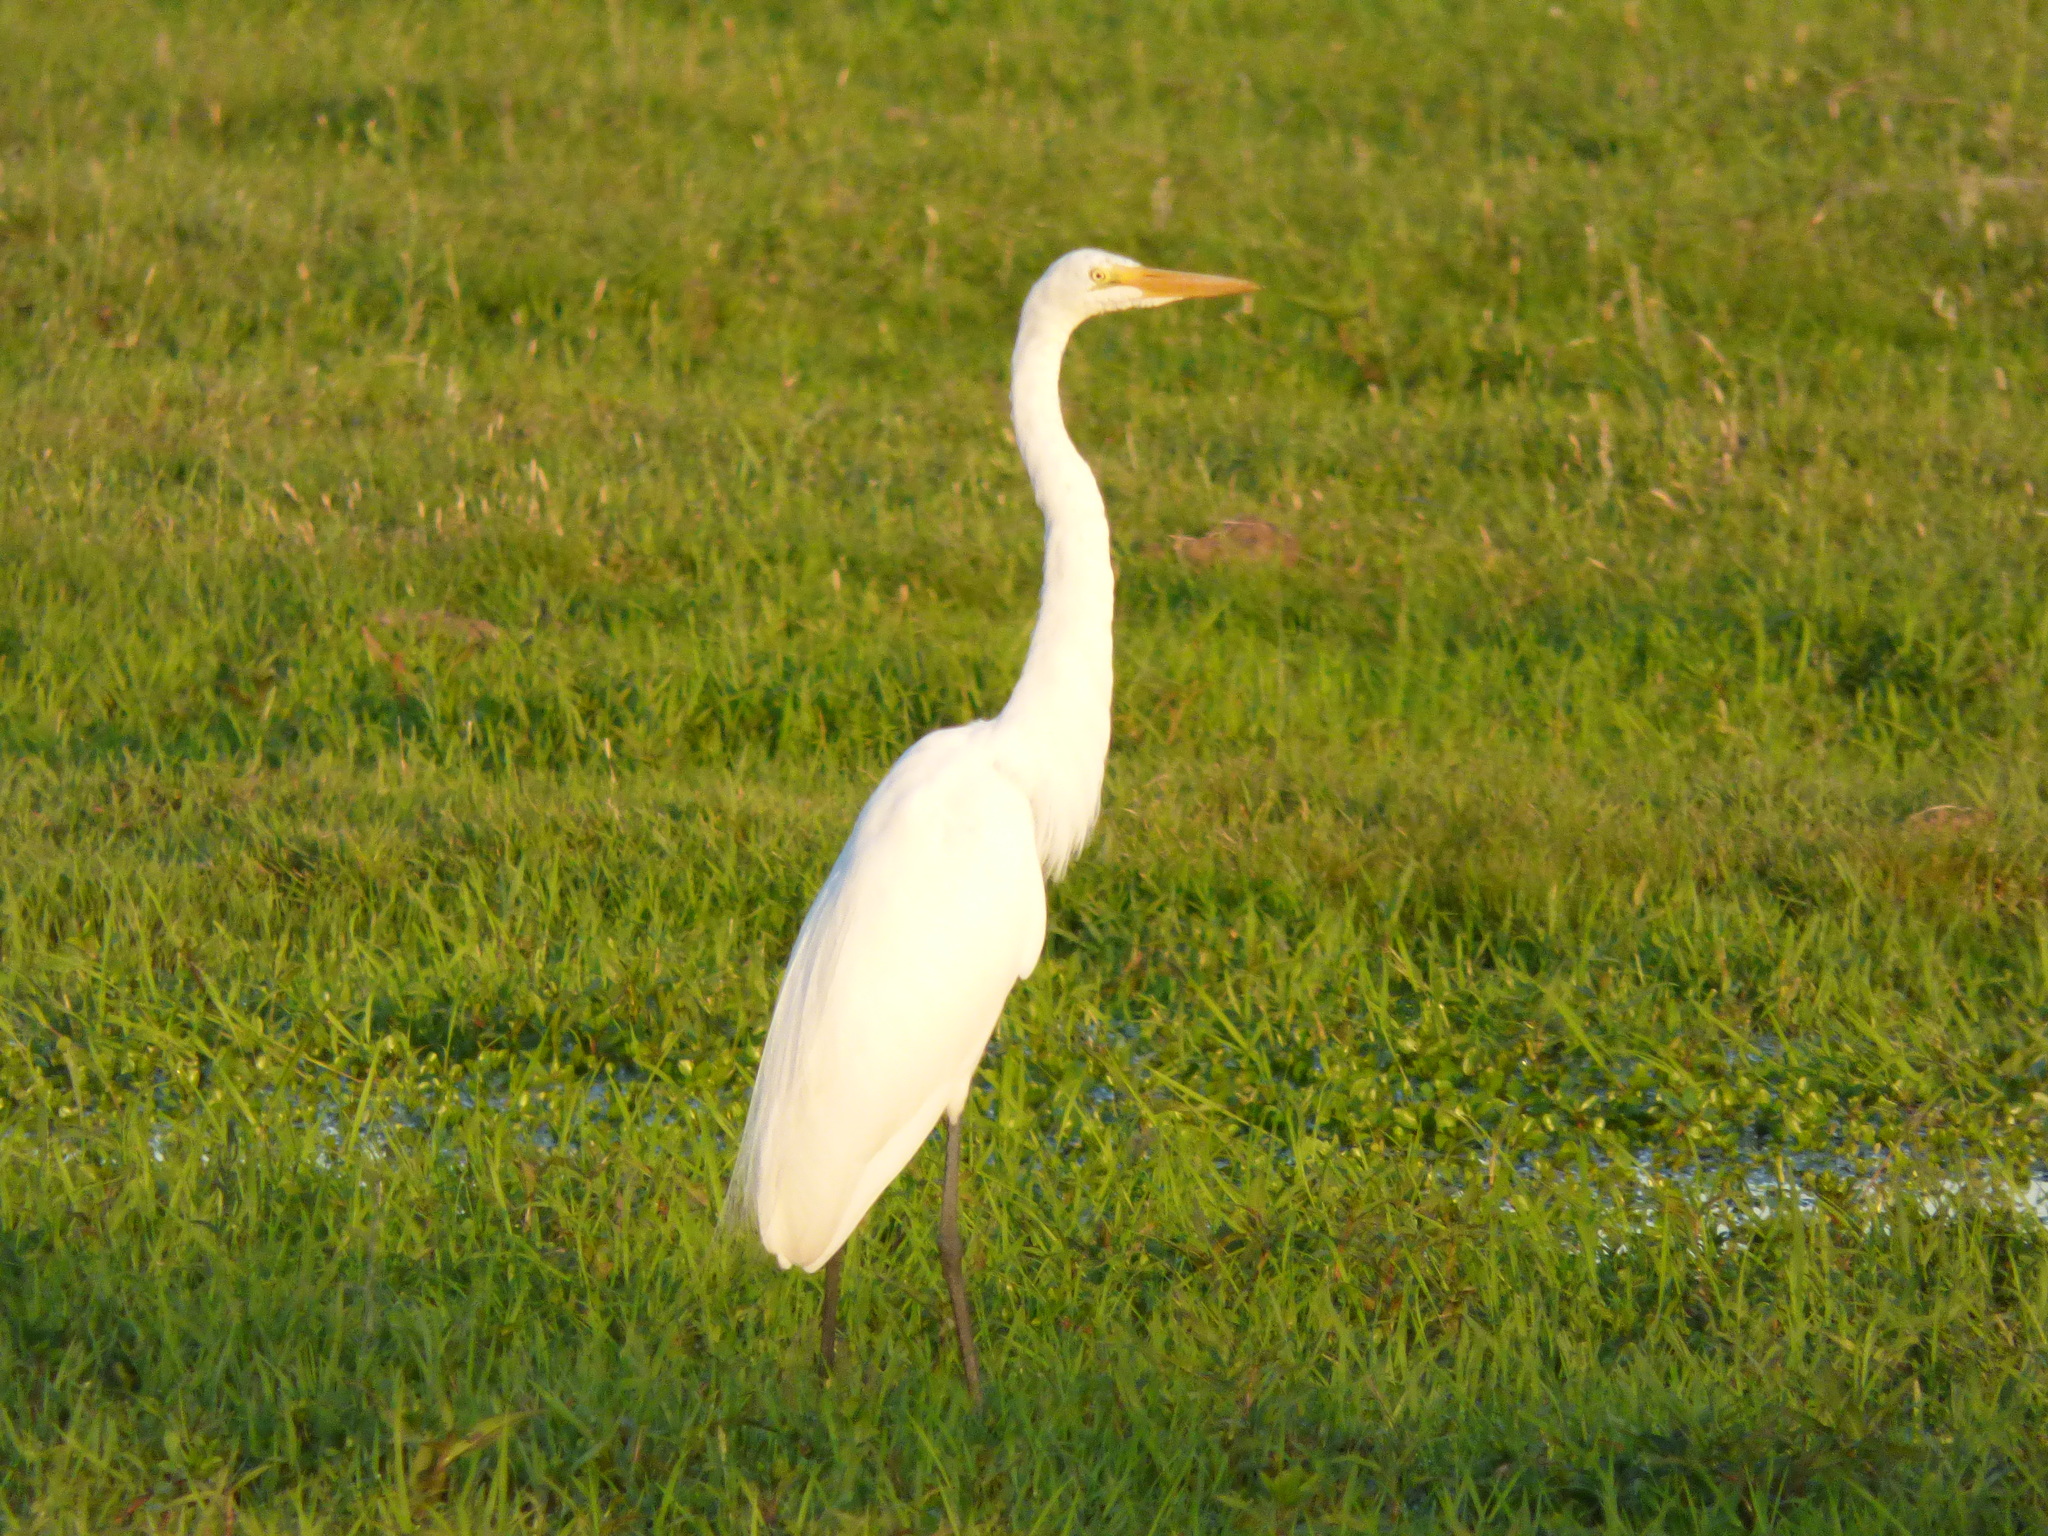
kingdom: Animalia
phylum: Chordata
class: Aves
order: Pelecaniformes
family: Ardeidae
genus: Ardea
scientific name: Ardea alba
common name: Great egret
